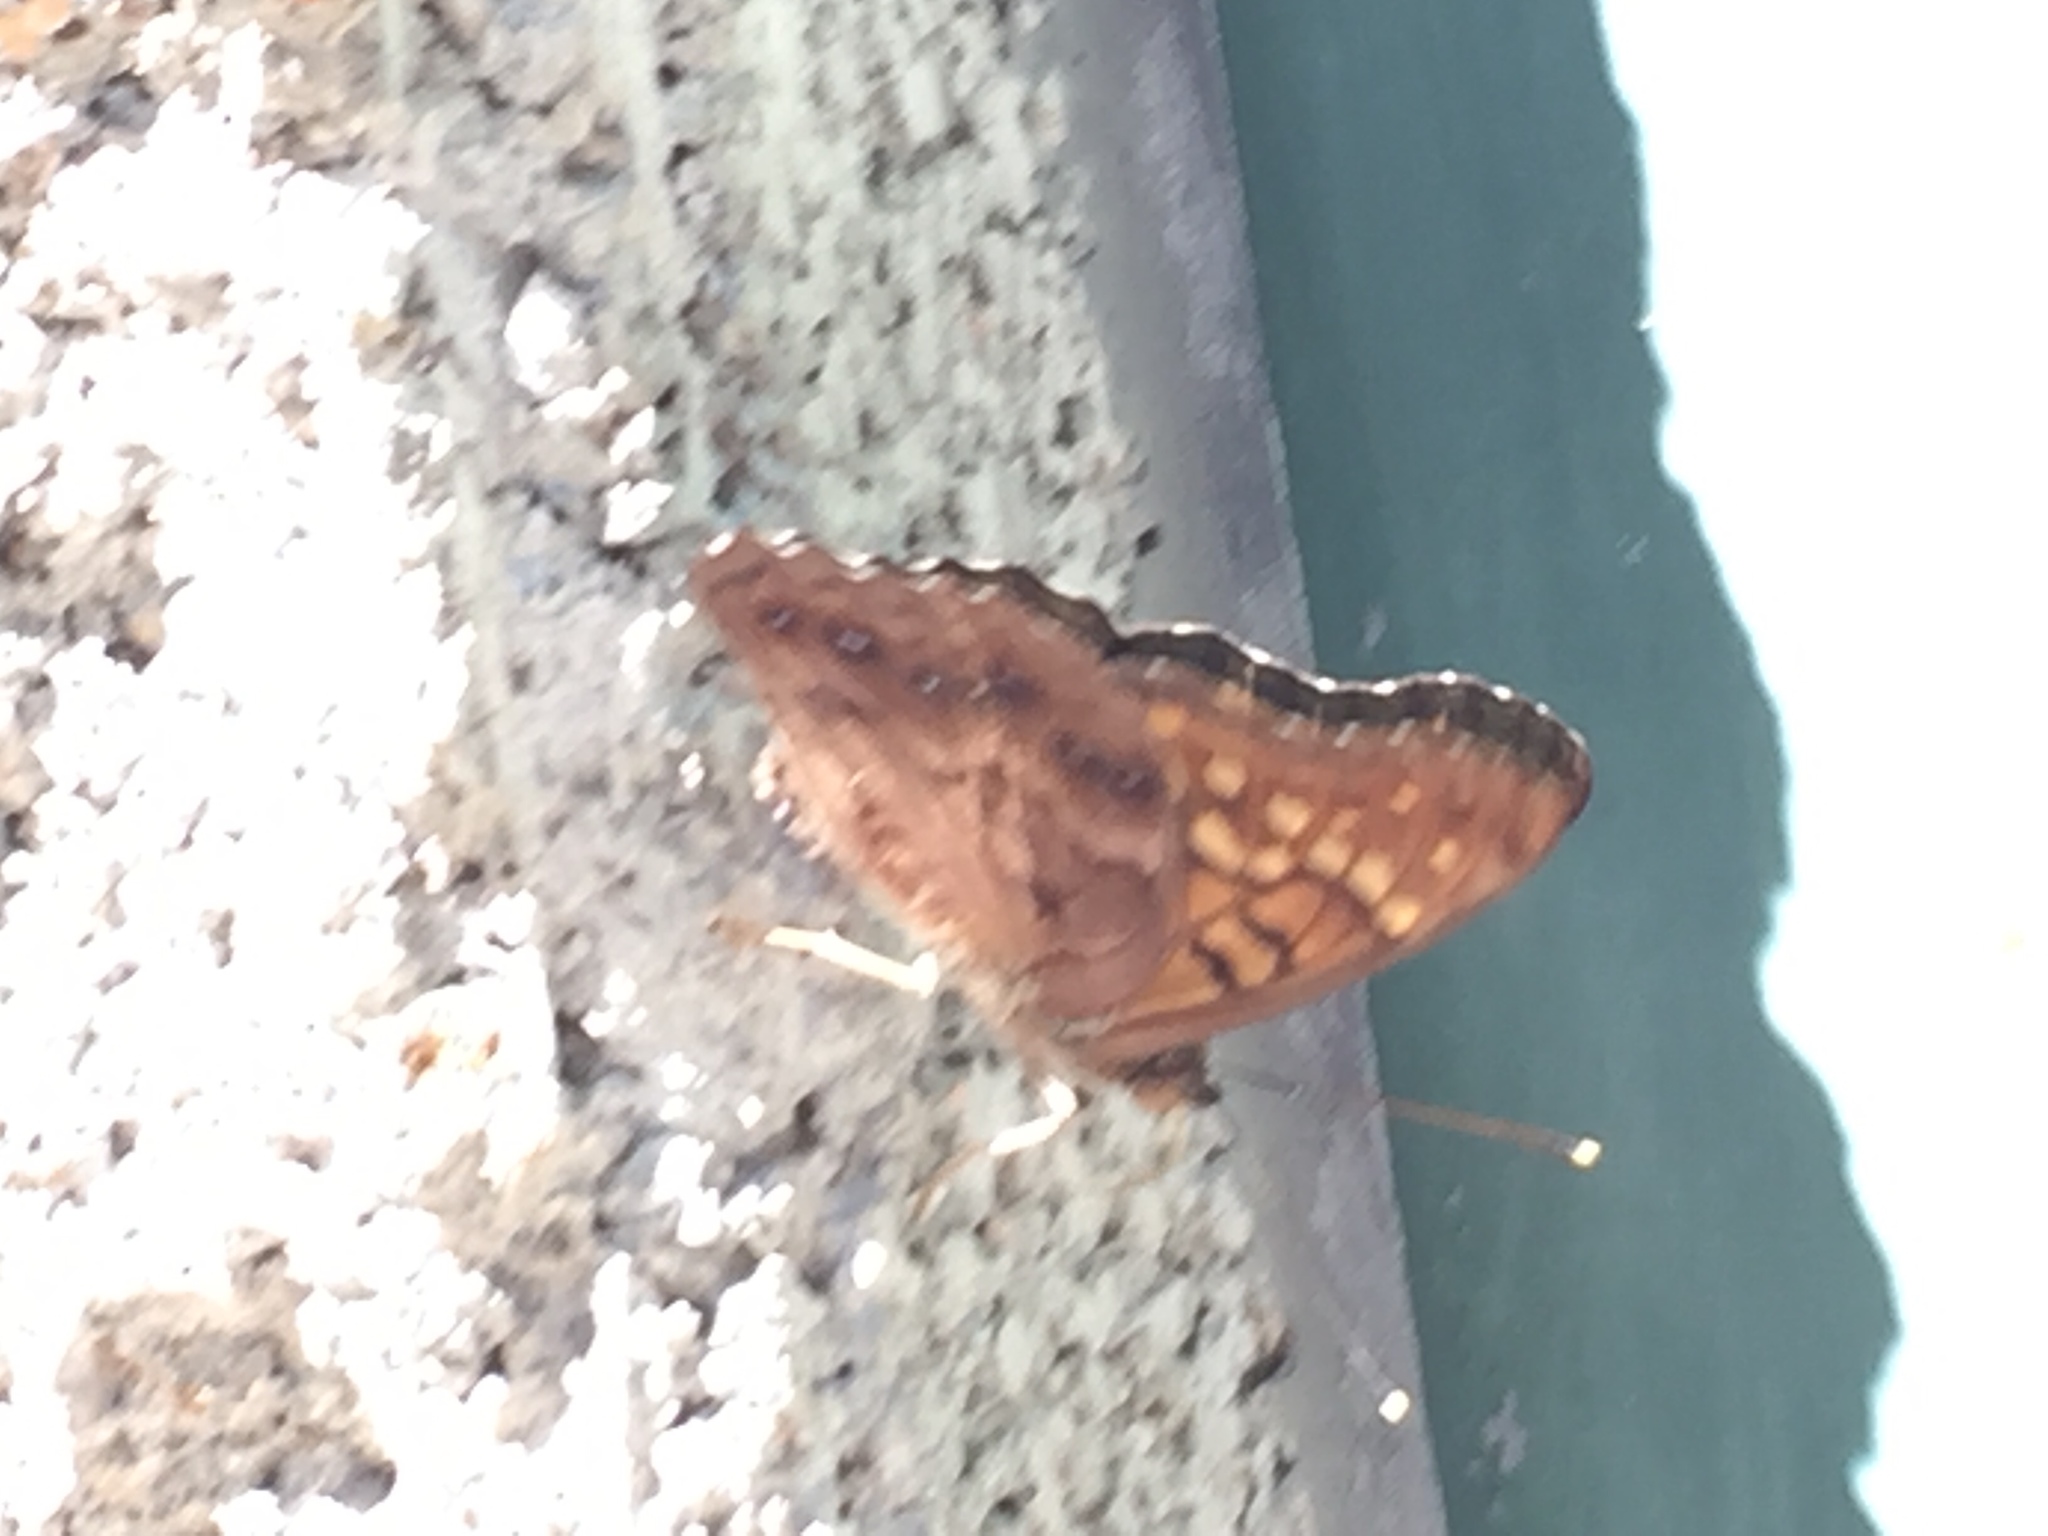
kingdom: Animalia
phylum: Arthropoda
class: Insecta
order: Lepidoptera
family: Nymphalidae
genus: Asterocampa
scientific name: Asterocampa clyton
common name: Tawny emperor
